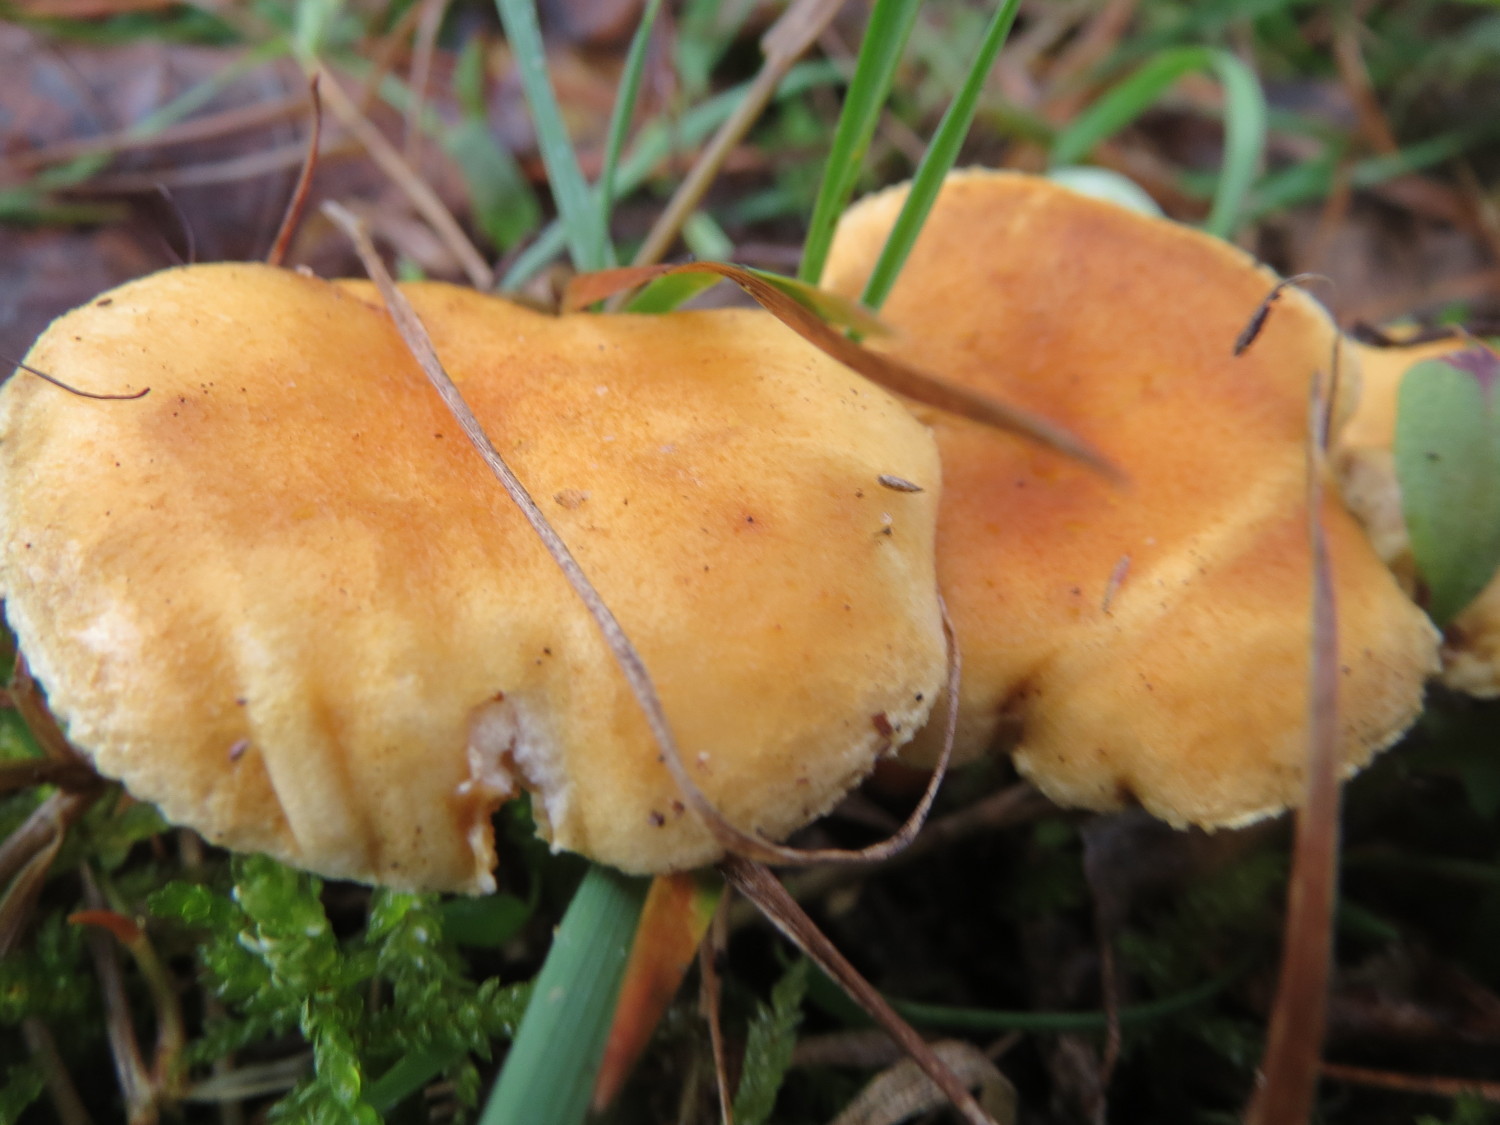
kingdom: Fungi
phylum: Basidiomycota
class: Agaricomycetes
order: Cantharellales
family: Hydnaceae
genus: Cantharellus
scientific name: Cantharellus cibarius
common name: Chanterelle
